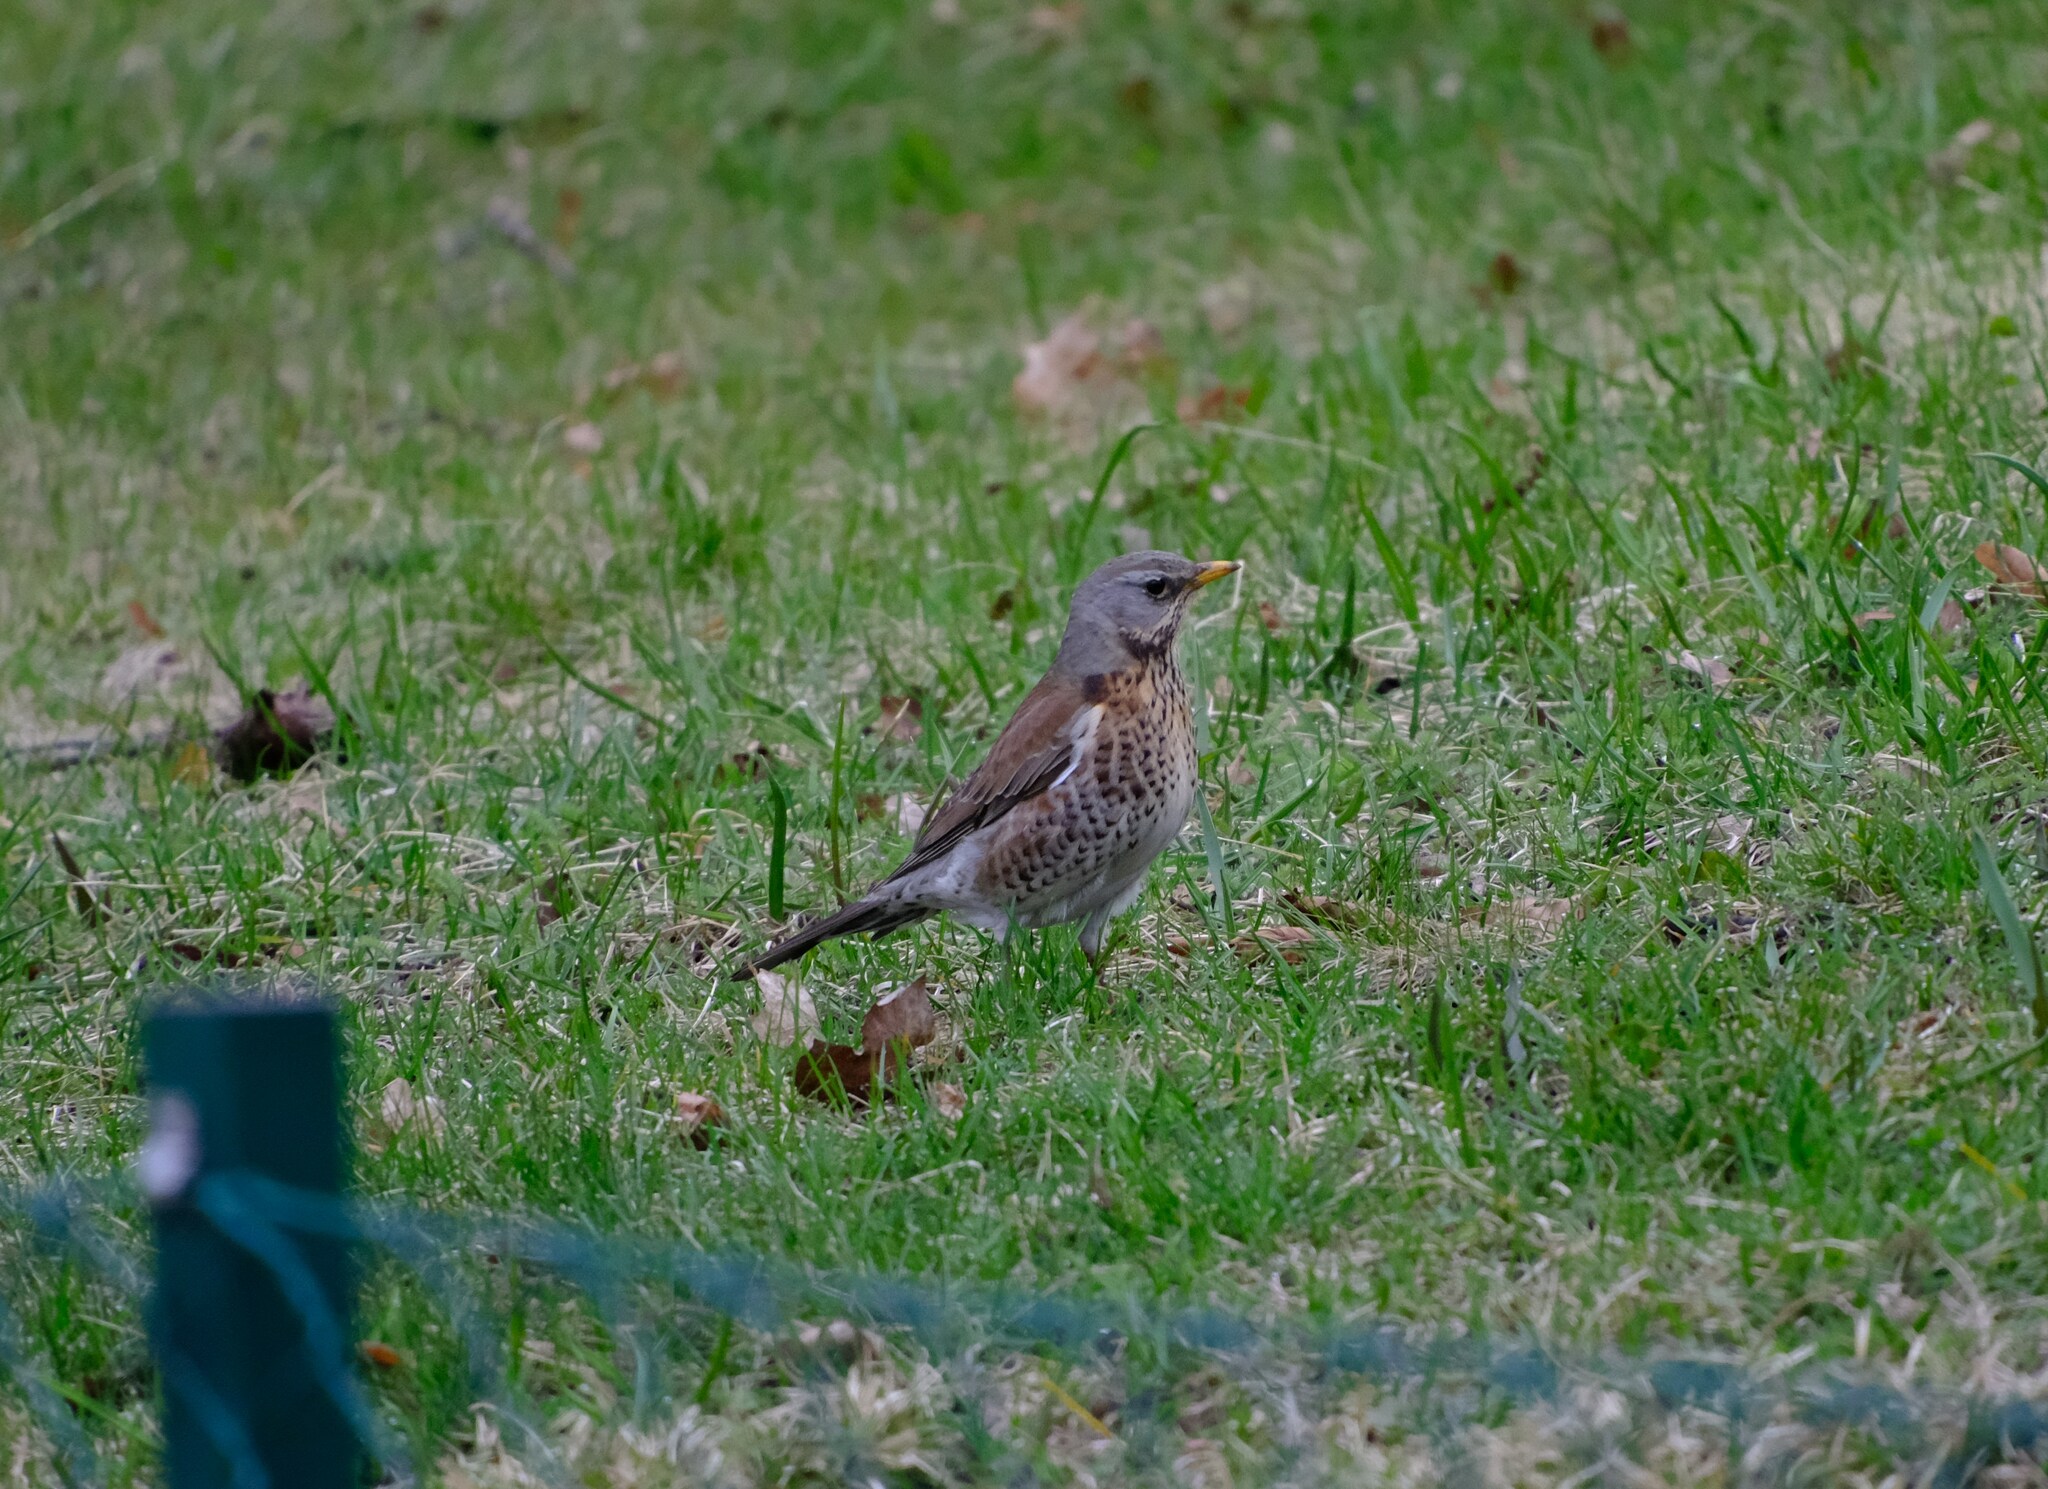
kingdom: Animalia
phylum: Chordata
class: Aves
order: Passeriformes
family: Turdidae
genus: Turdus
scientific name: Turdus pilaris
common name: Fieldfare
